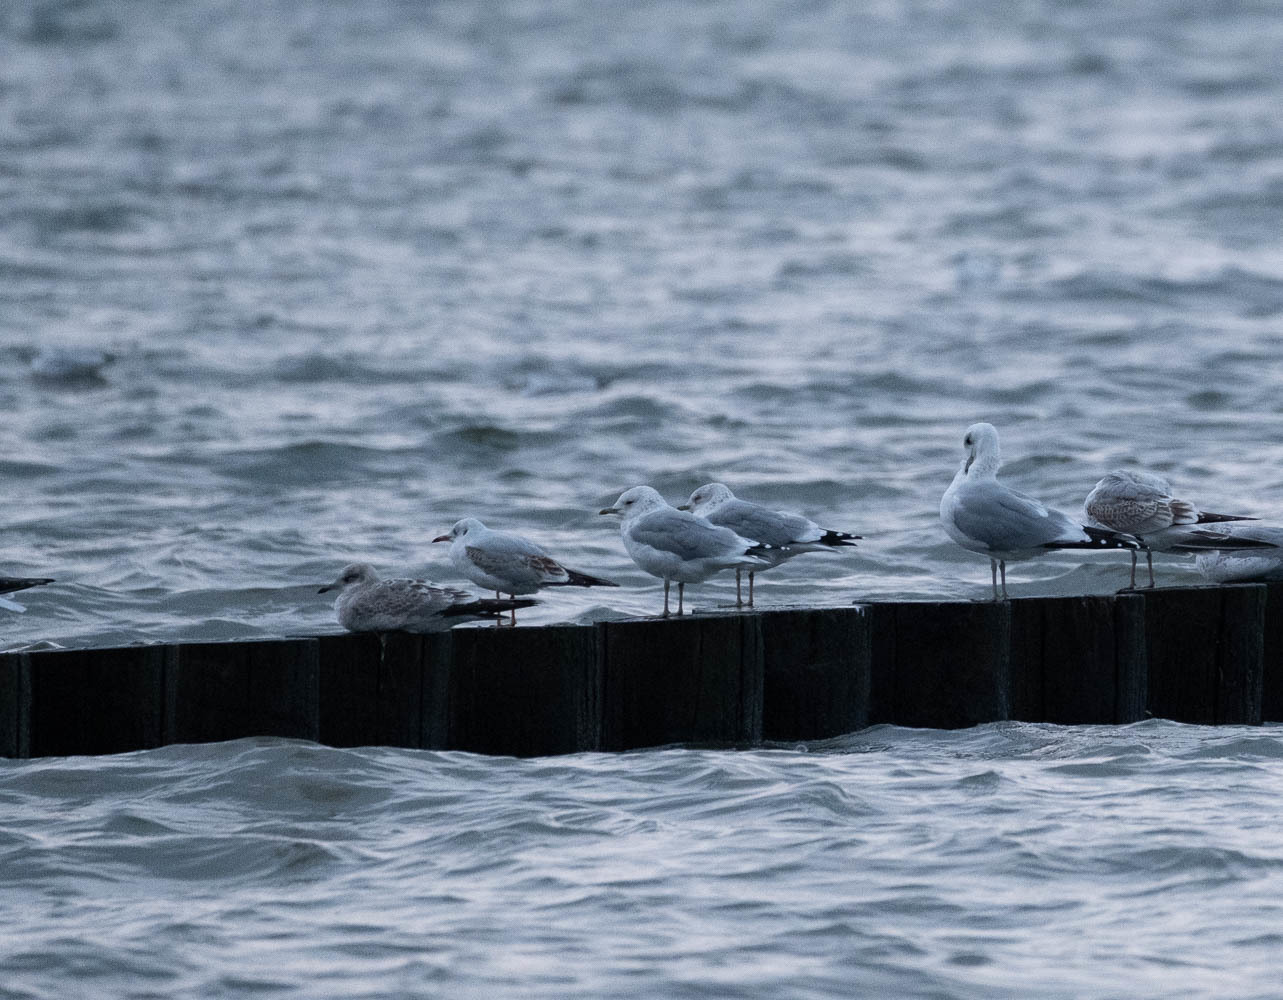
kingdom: Animalia
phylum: Chordata
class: Aves
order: Charadriiformes
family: Laridae
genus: Larus
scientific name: Larus canus
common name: Mew gull
